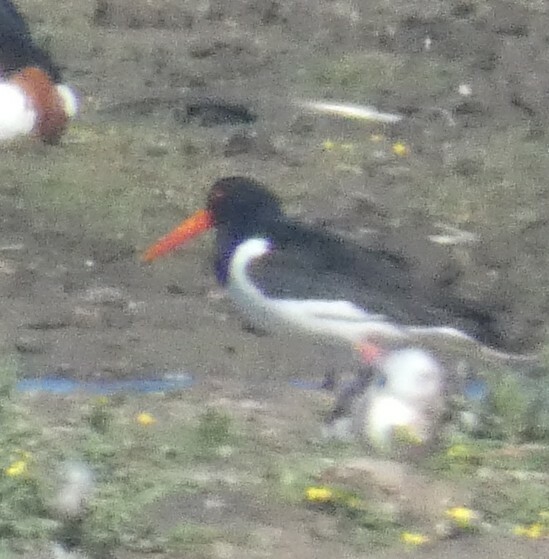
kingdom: Animalia
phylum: Chordata
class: Aves
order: Charadriiformes
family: Haematopodidae
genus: Haematopus
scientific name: Haematopus ostralegus
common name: Eurasian oystercatcher
